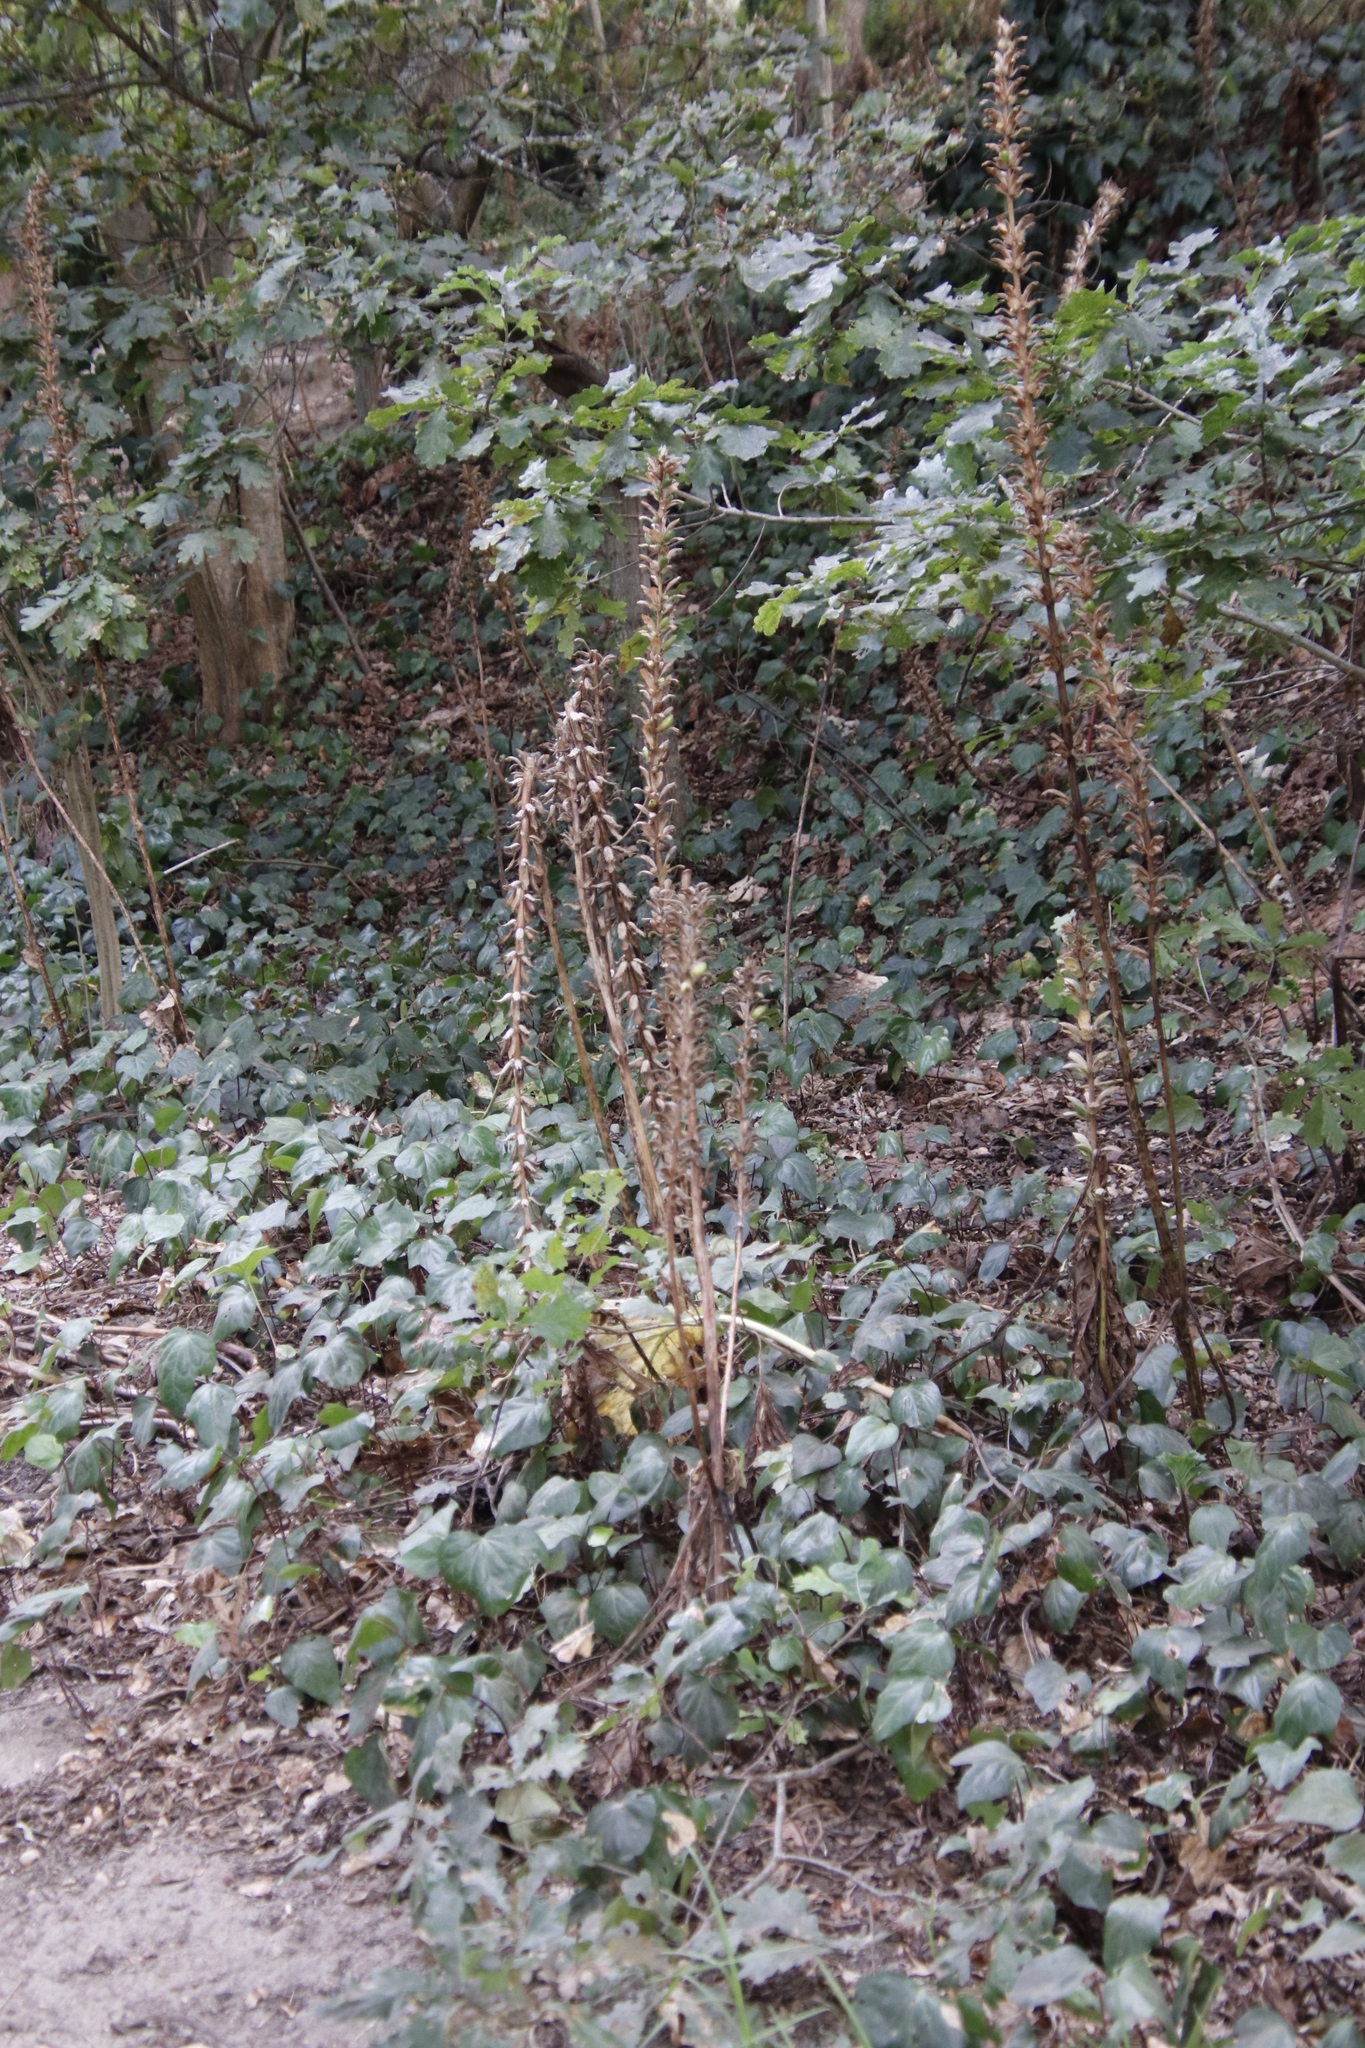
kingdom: Plantae
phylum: Tracheophyta
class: Magnoliopsida
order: Lamiales
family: Acanthaceae
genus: Acanthus
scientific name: Acanthus mollis
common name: Bear's-breech
